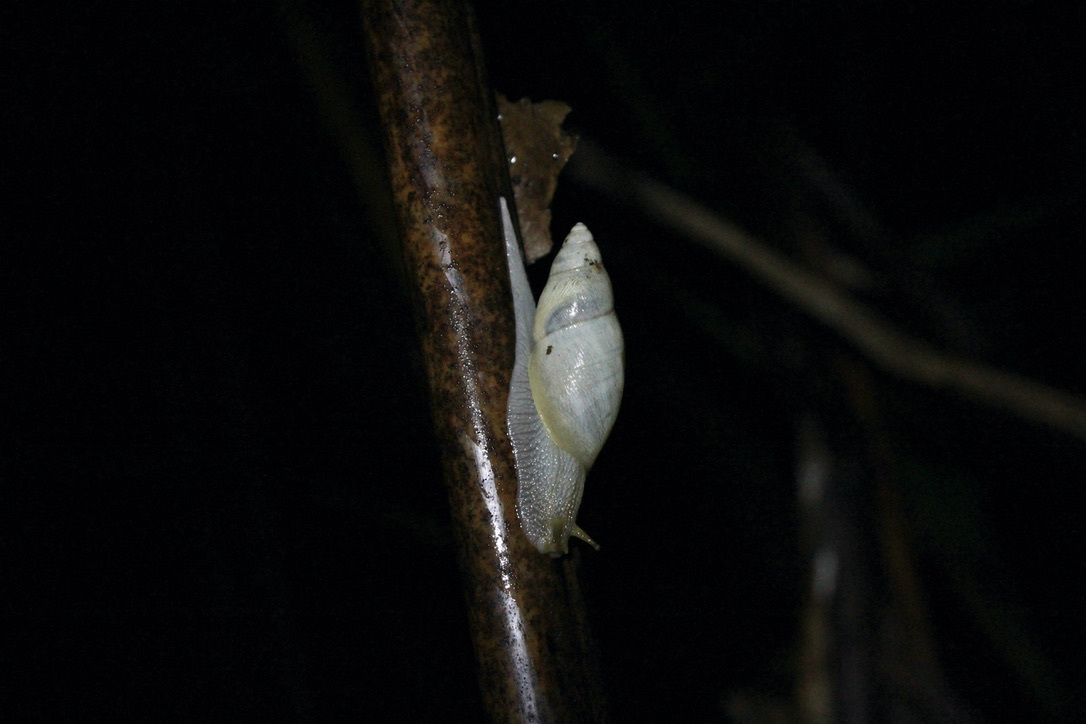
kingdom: Animalia
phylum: Mollusca
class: Gastropoda
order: Stylommatophora
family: Amphibulimidae
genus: Plekocheilus
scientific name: Plekocheilus glaber
